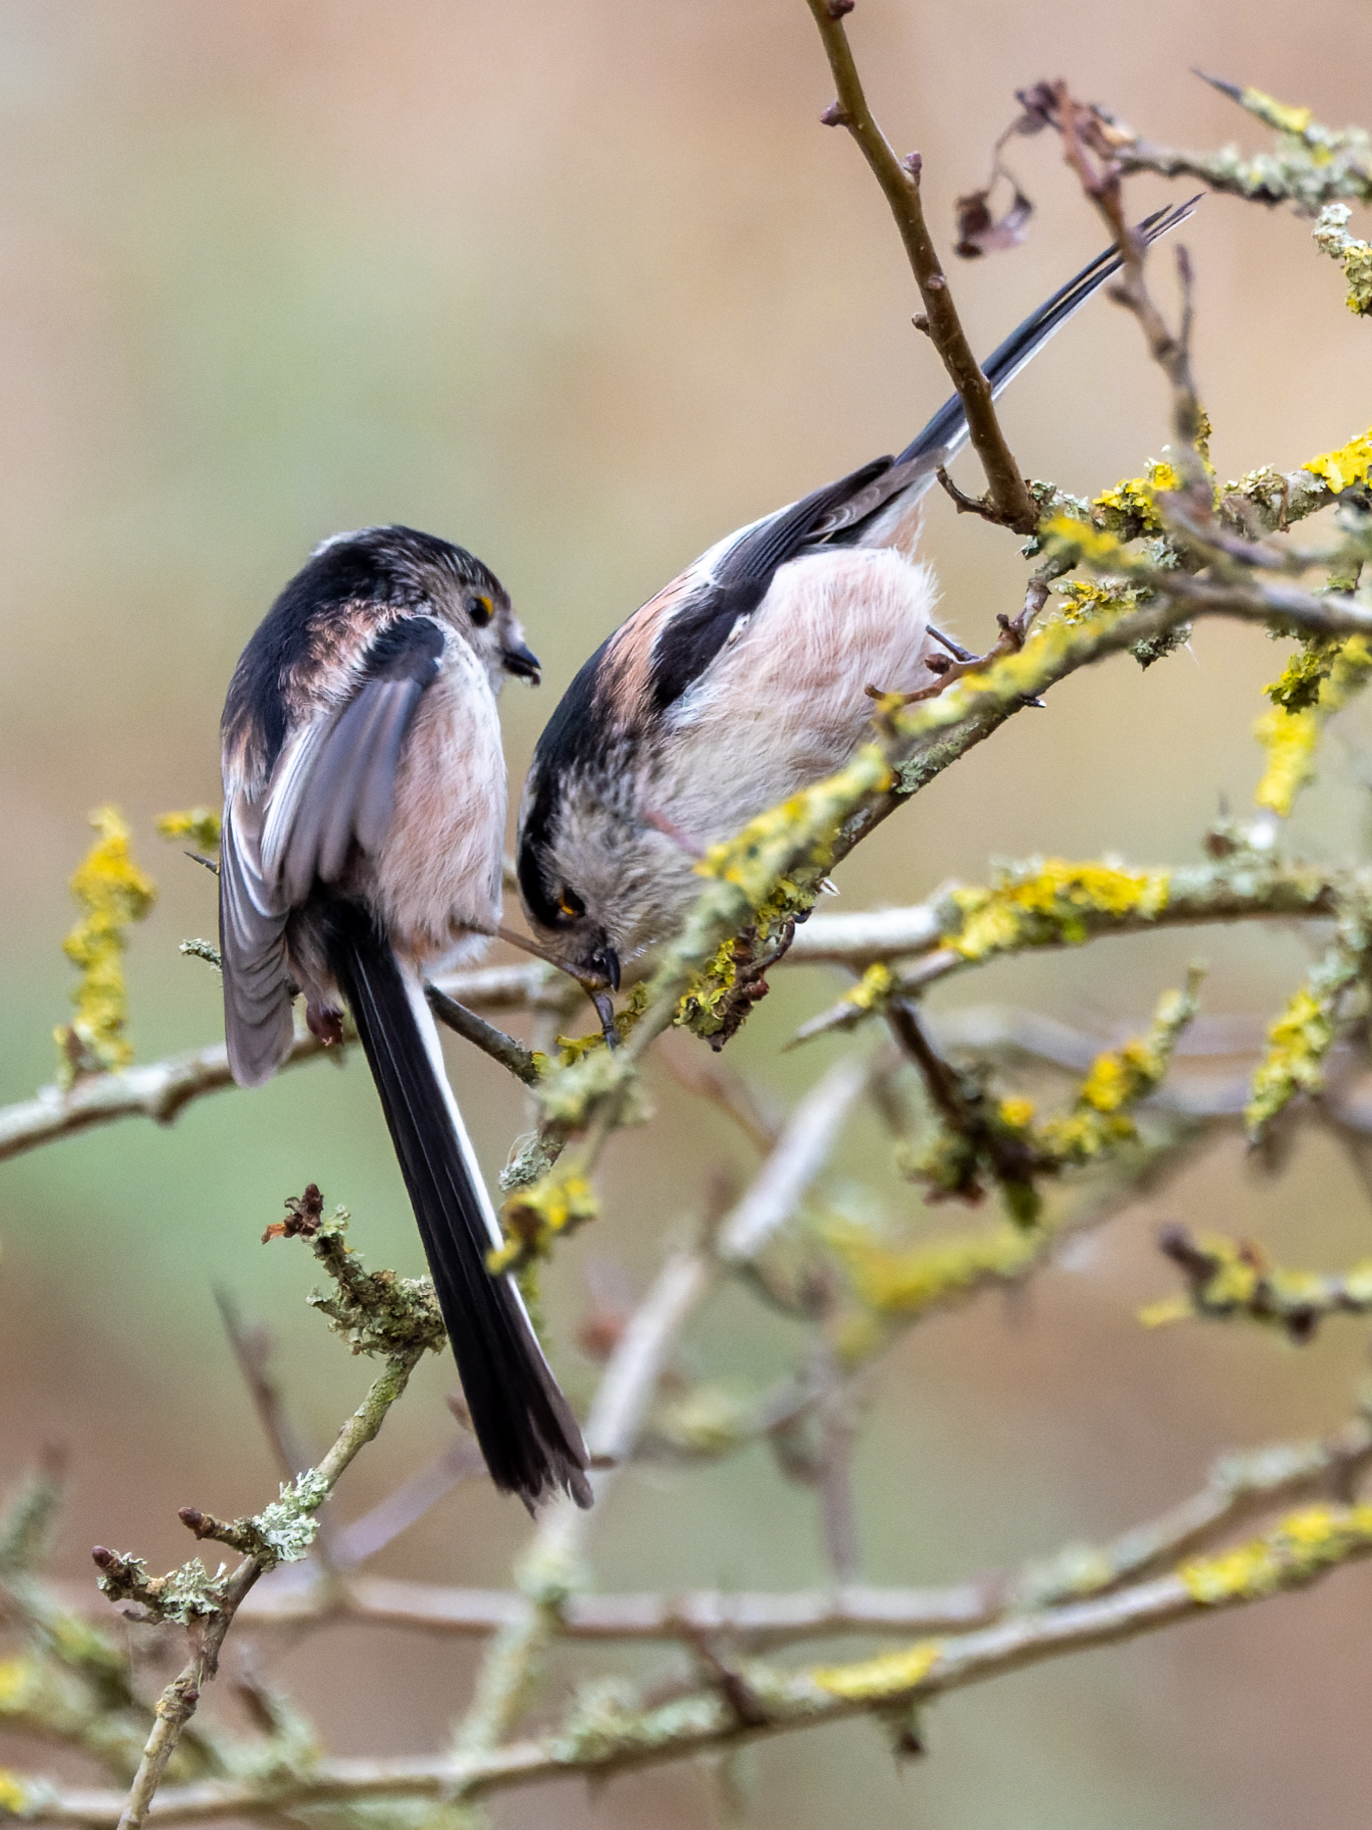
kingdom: Animalia
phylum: Chordata
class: Aves
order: Passeriformes
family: Aegithalidae
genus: Aegithalos
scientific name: Aegithalos caudatus
